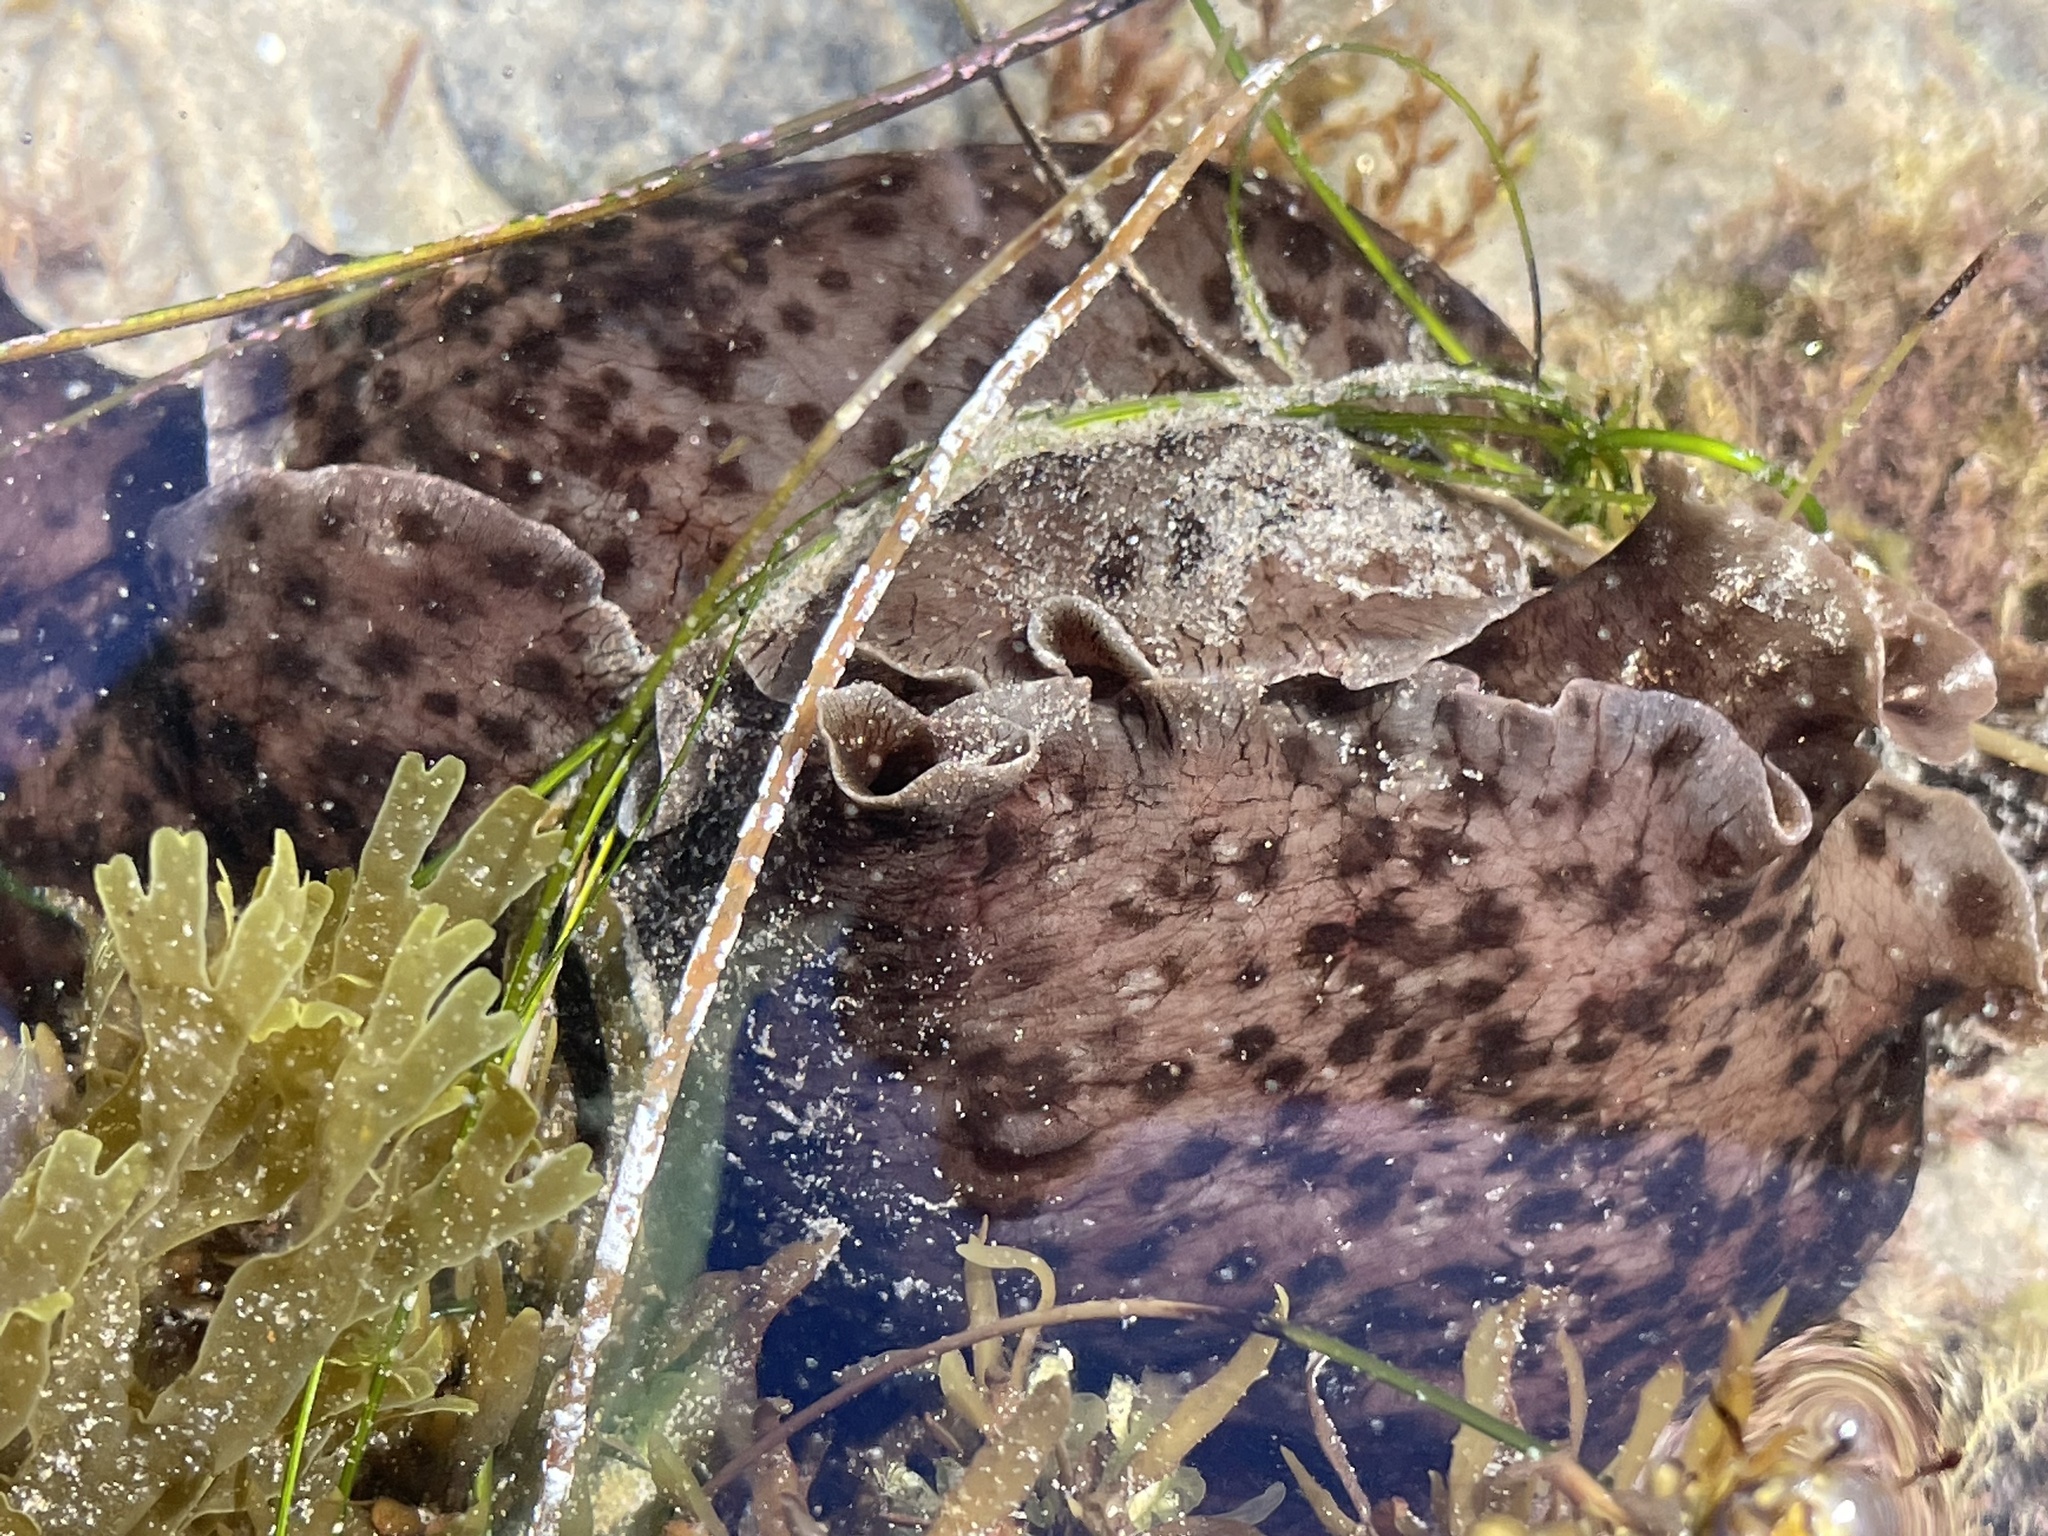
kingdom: Animalia
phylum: Mollusca
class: Gastropoda
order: Aplysiida
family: Aplysiidae
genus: Aplysia
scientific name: Aplysia californica
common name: California seahare
